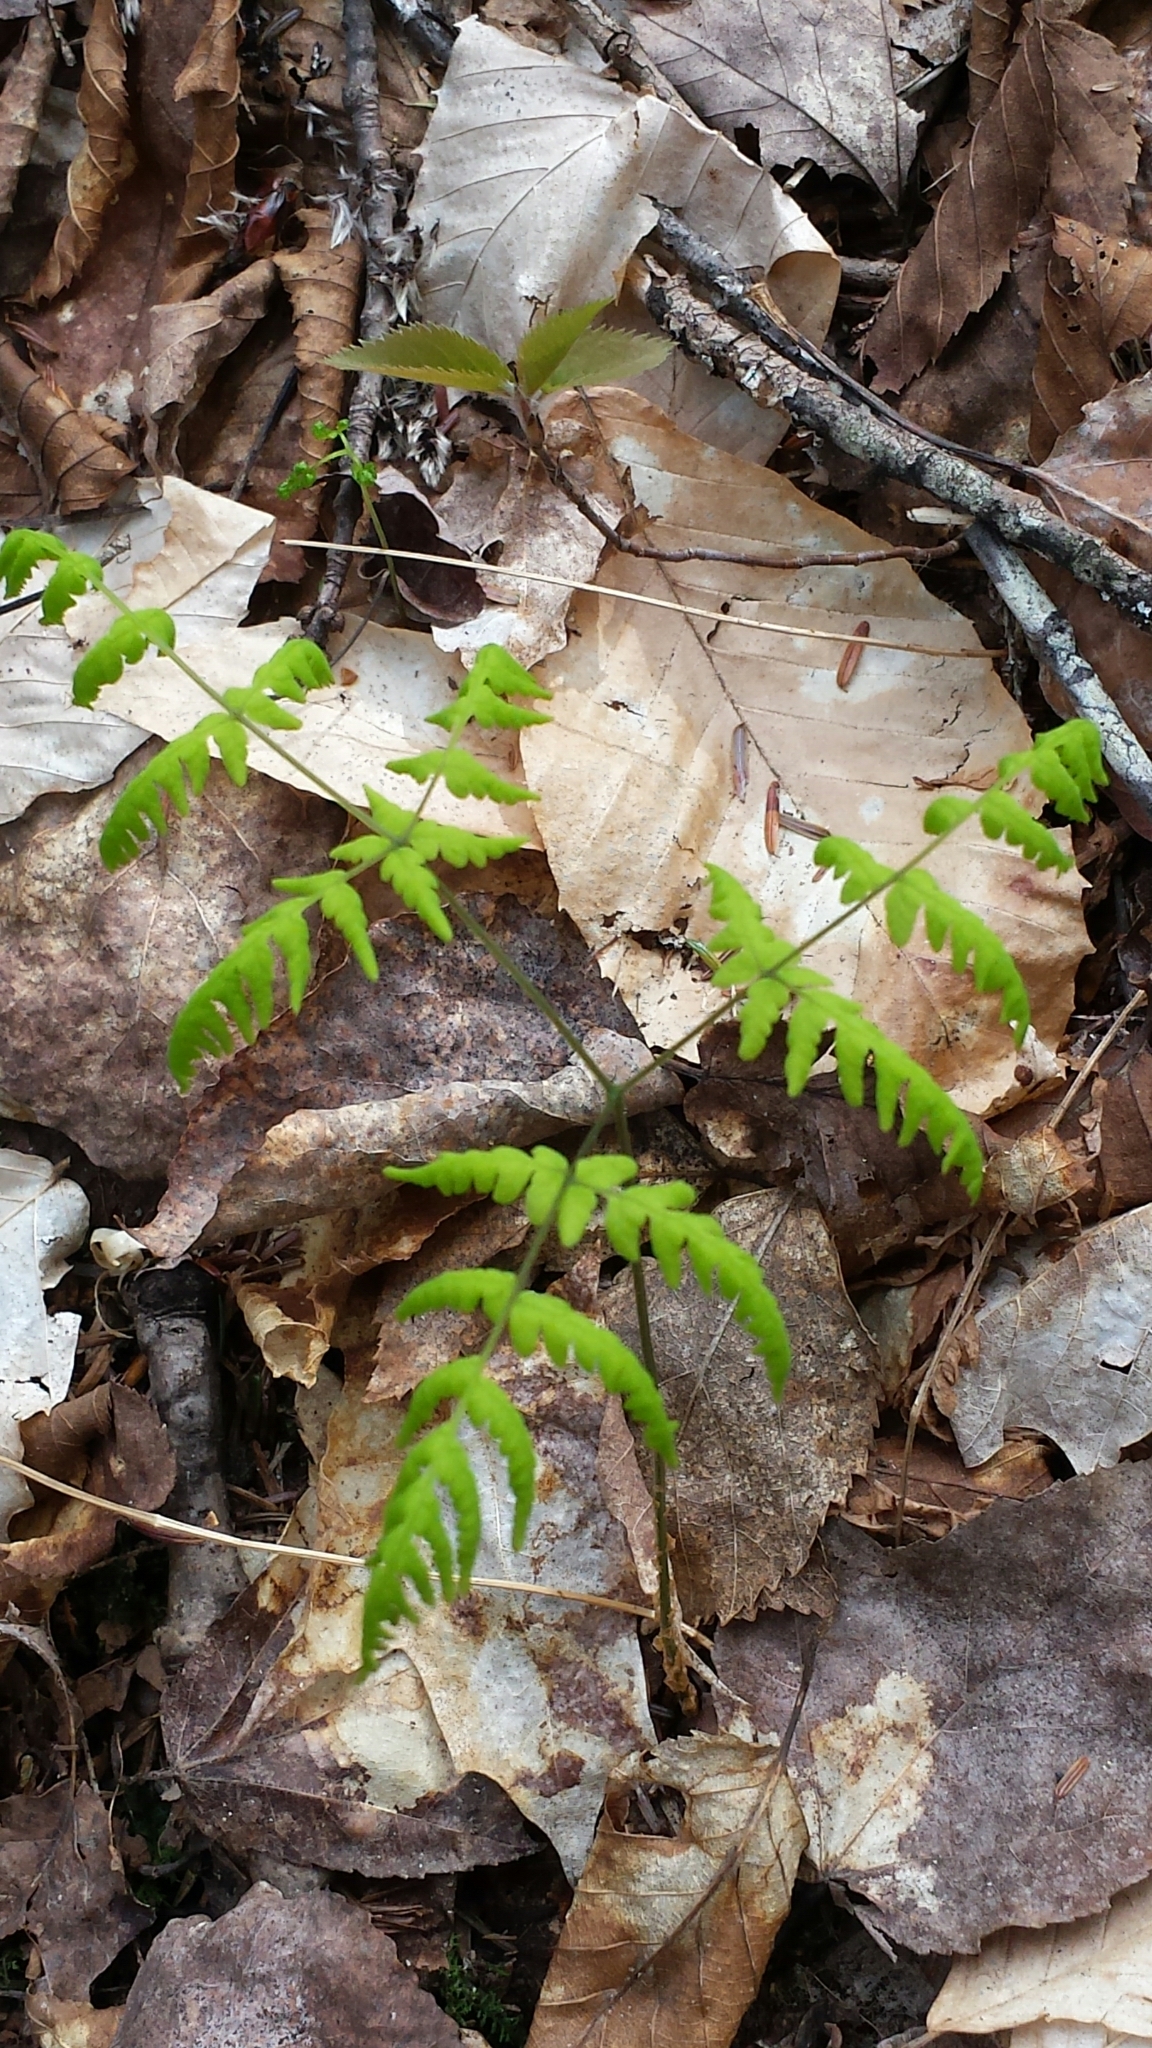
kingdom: Plantae
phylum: Tracheophyta
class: Polypodiopsida
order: Polypodiales
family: Cystopteridaceae
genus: Gymnocarpium
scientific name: Gymnocarpium dryopteris
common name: Oak fern
